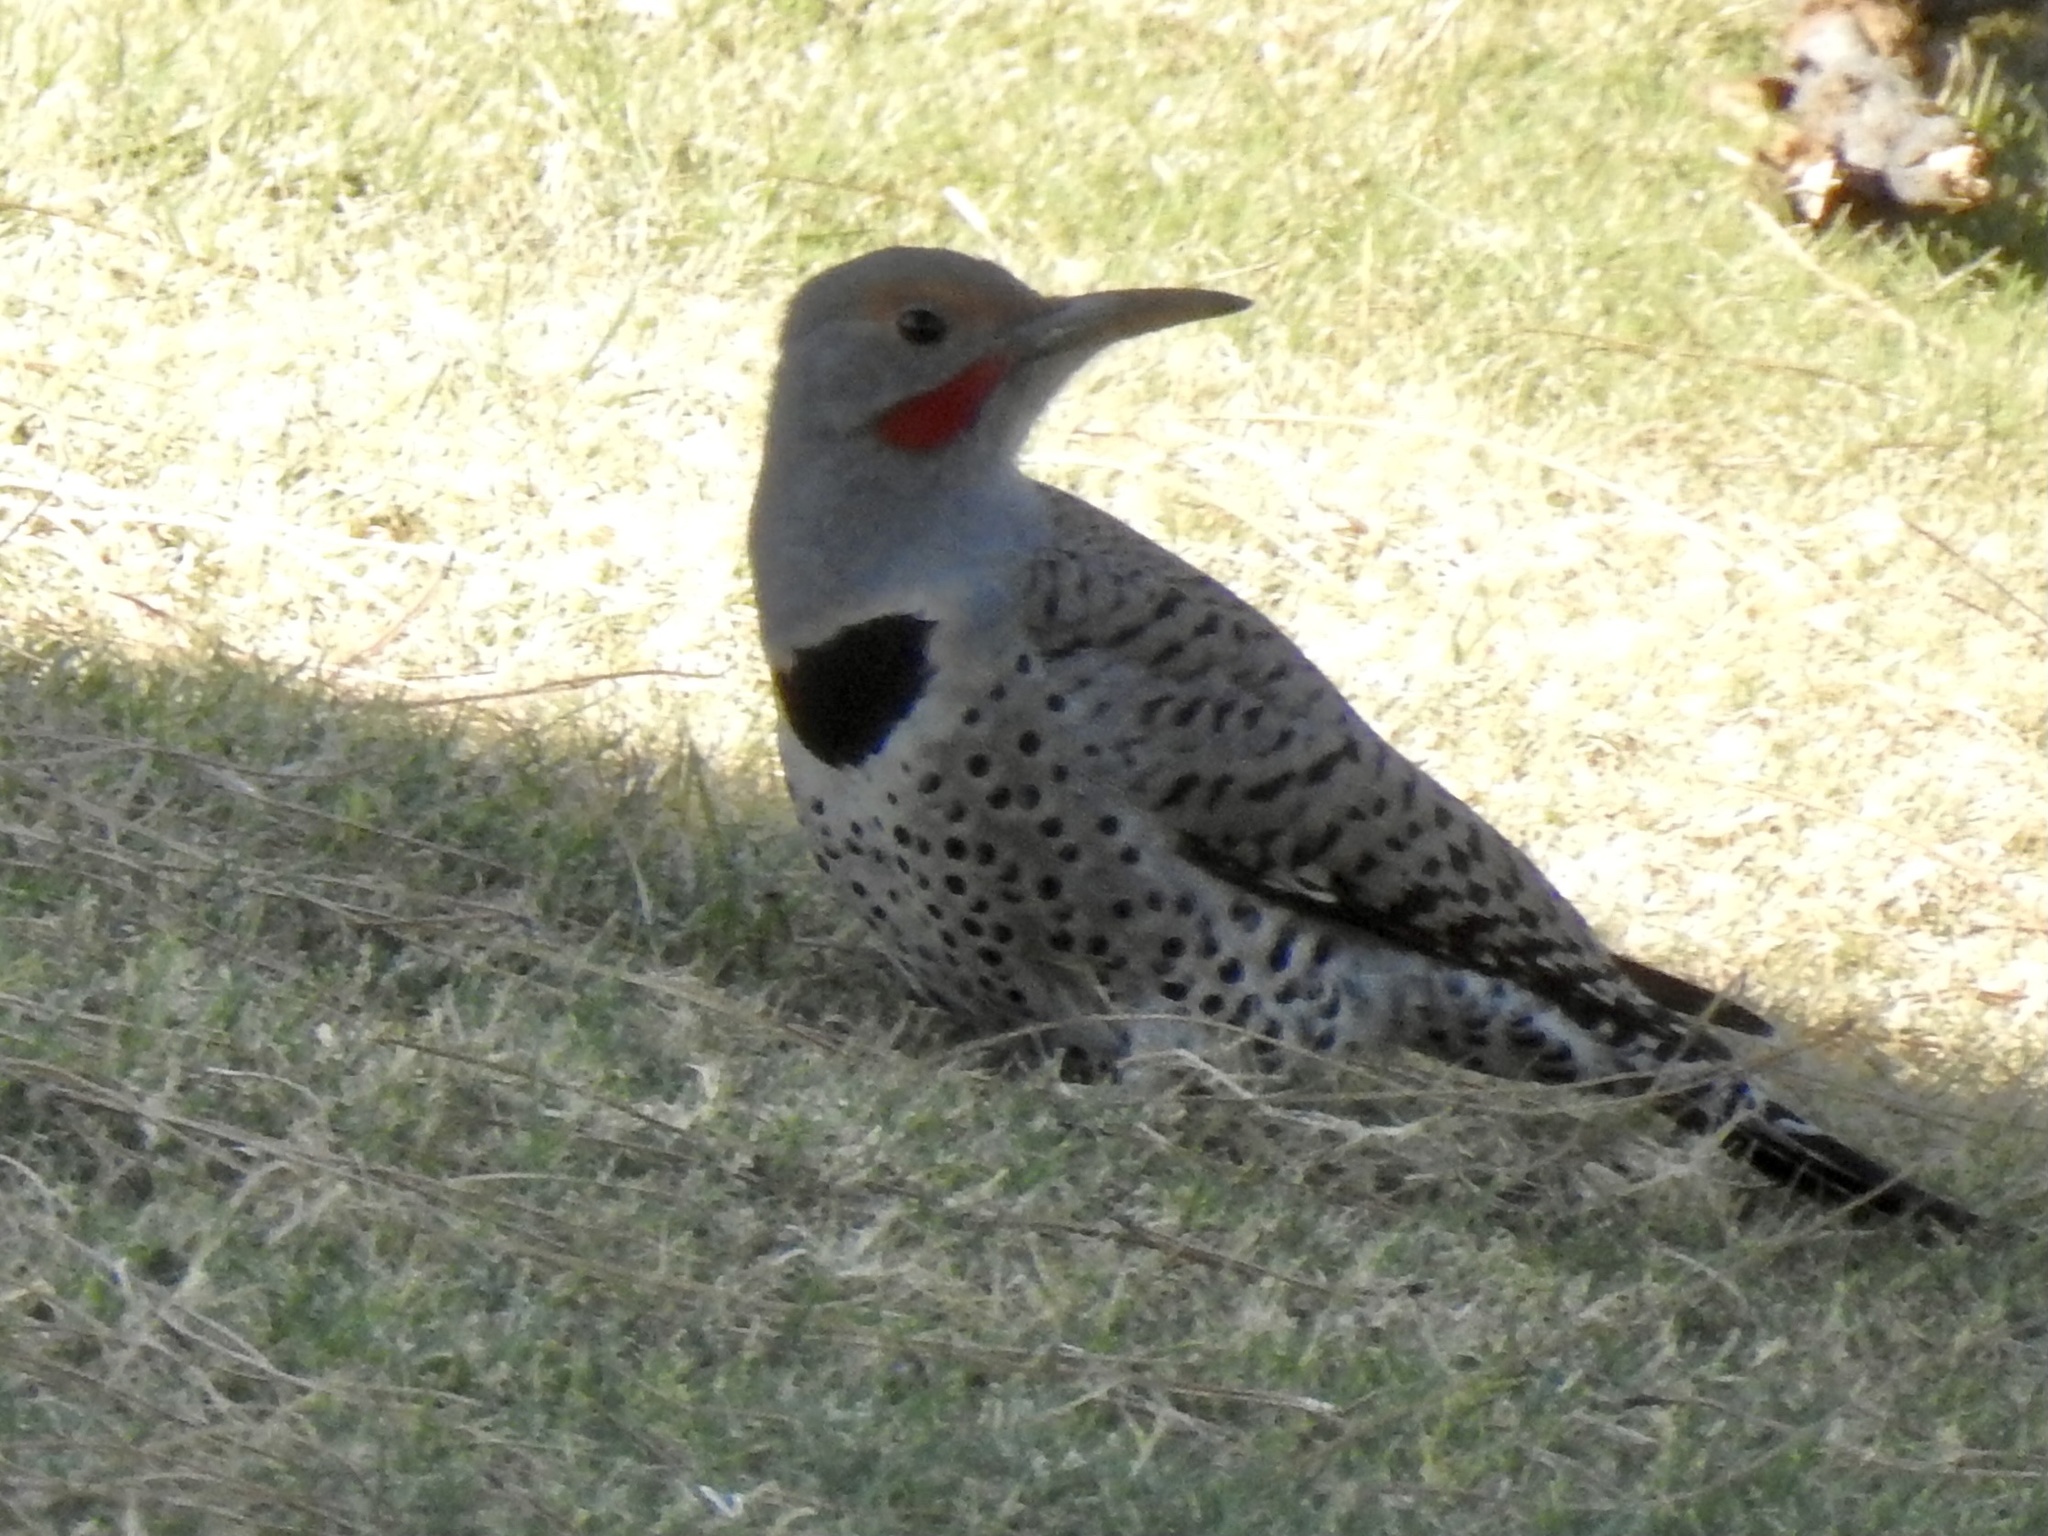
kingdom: Animalia
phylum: Chordata
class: Aves
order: Piciformes
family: Picidae
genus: Colaptes
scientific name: Colaptes auratus
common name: Northern flicker
